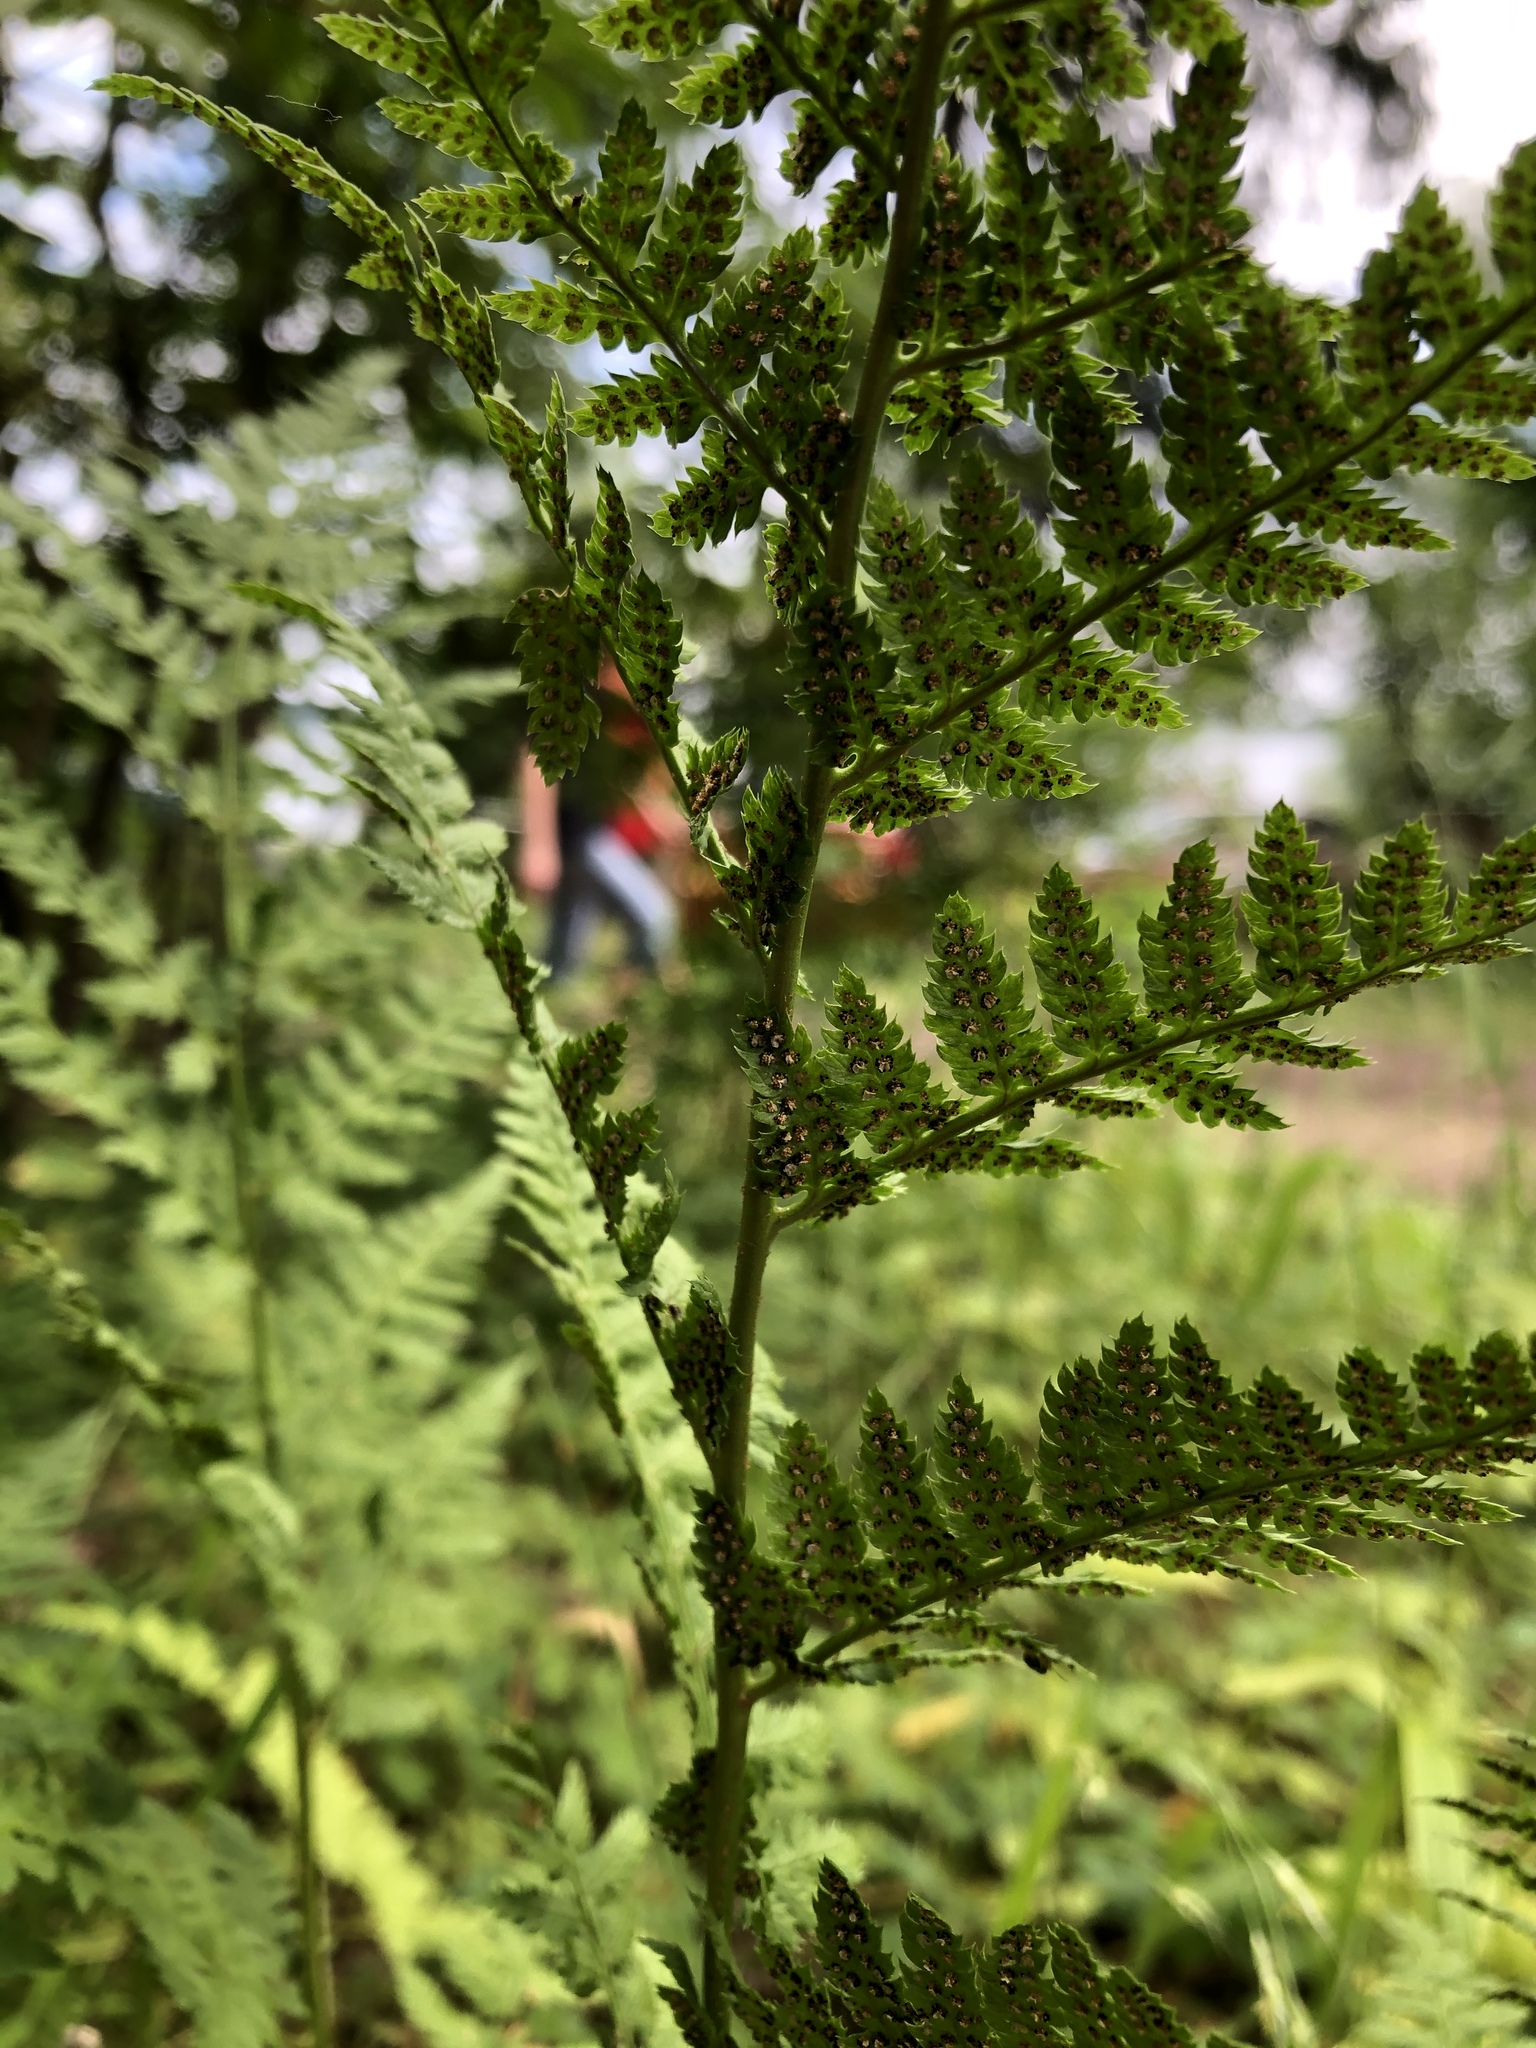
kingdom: Plantae
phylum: Tracheophyta
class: Polypodiopsida
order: Polypodiales
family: Dryopteridaceae
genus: Dryopteris
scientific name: Dryopteris carthusiana
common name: Narrow buckler-fern
